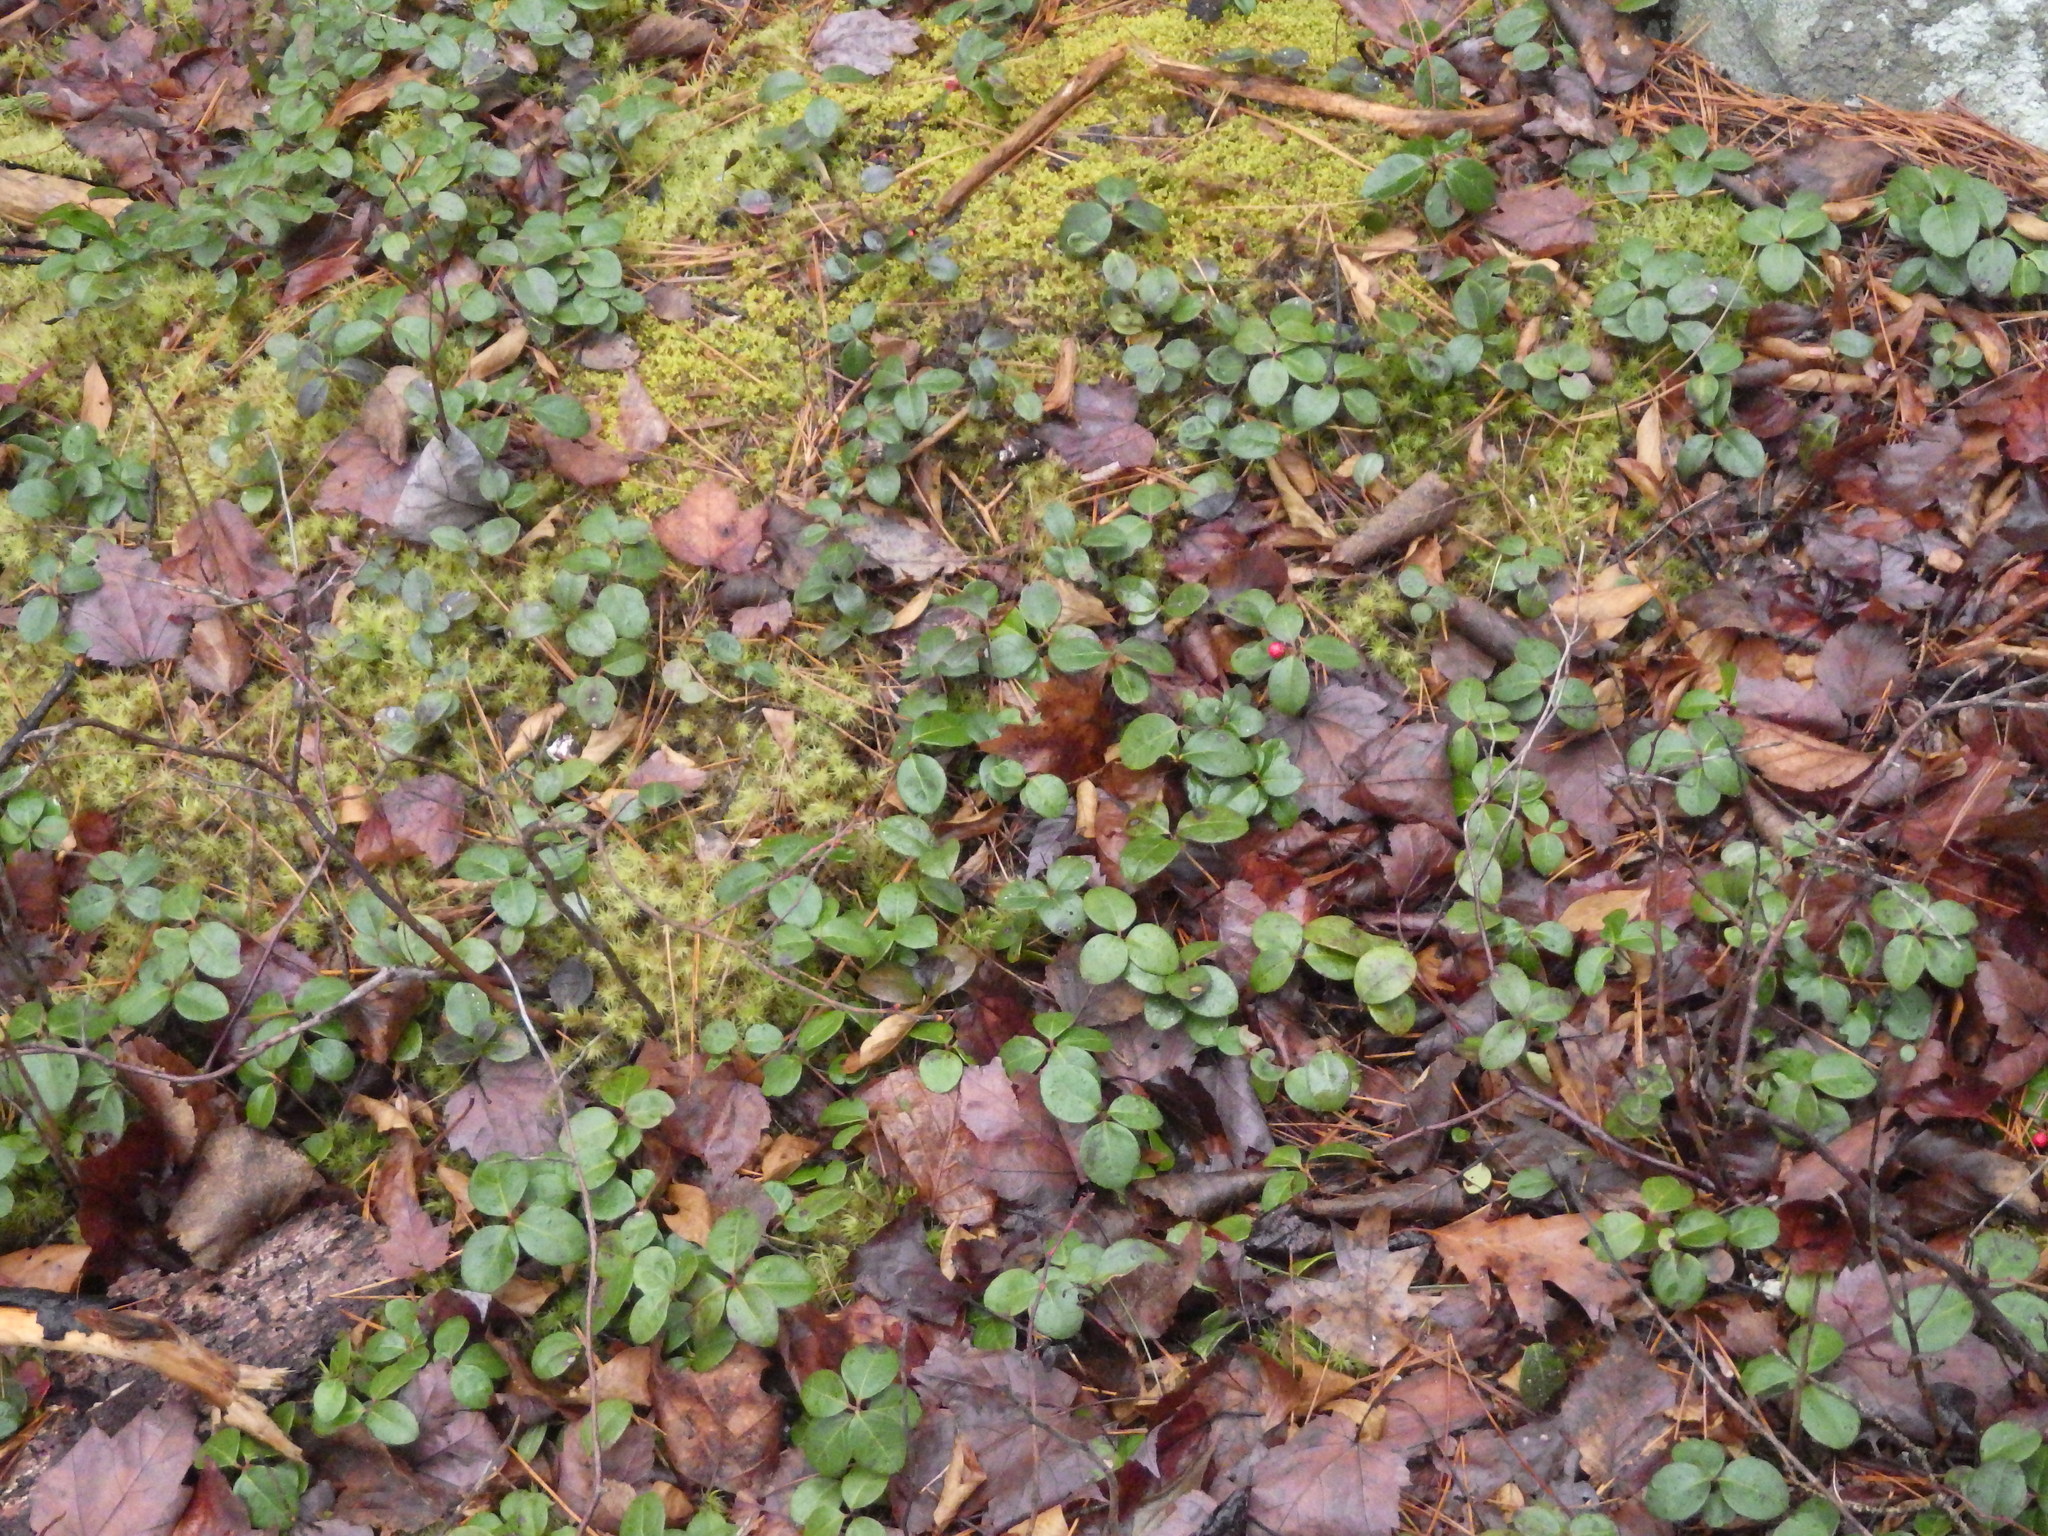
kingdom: Plantae
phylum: Tracheophyta
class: Magnoliopsida
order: Ericales
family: Ericaceae
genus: Gaultheria
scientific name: Gaultheria procumbens
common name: Checkerberry
